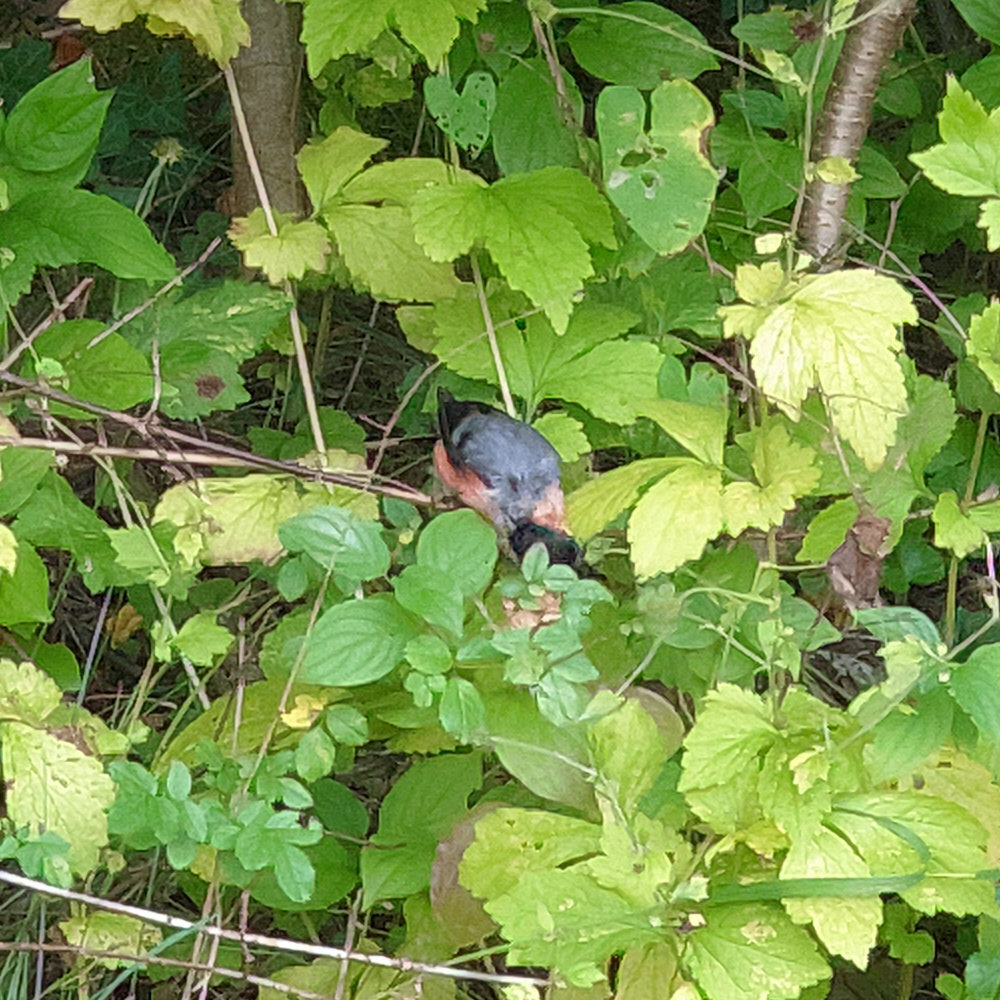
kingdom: Animalia
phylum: Chordata
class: Aves
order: Passeriformes
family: Fringillidae
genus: Pyrrhula
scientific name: Pyrrhula pyrrhula
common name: Eurasian bullfinch
